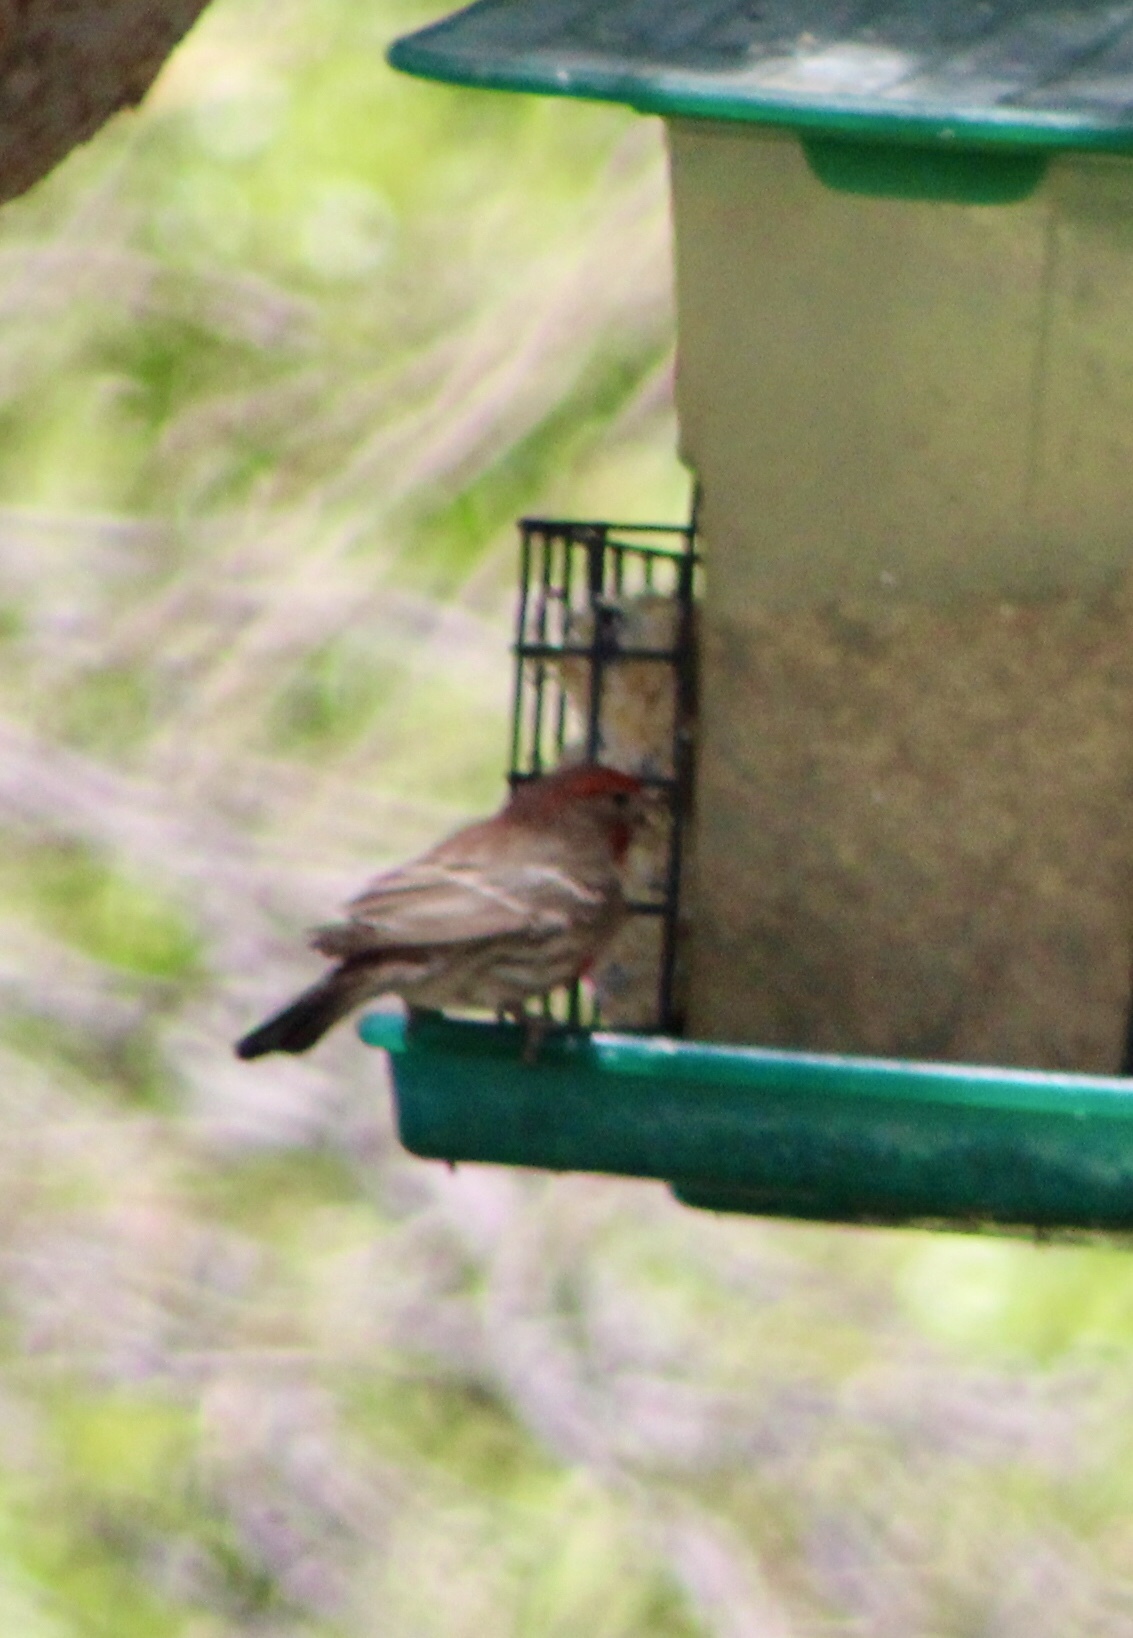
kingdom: Animalia
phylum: Chordata
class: Aves
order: Passeriformes
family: Fringillidae
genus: Haemorhous
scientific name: Haemorhous mexicanus
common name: House finch
